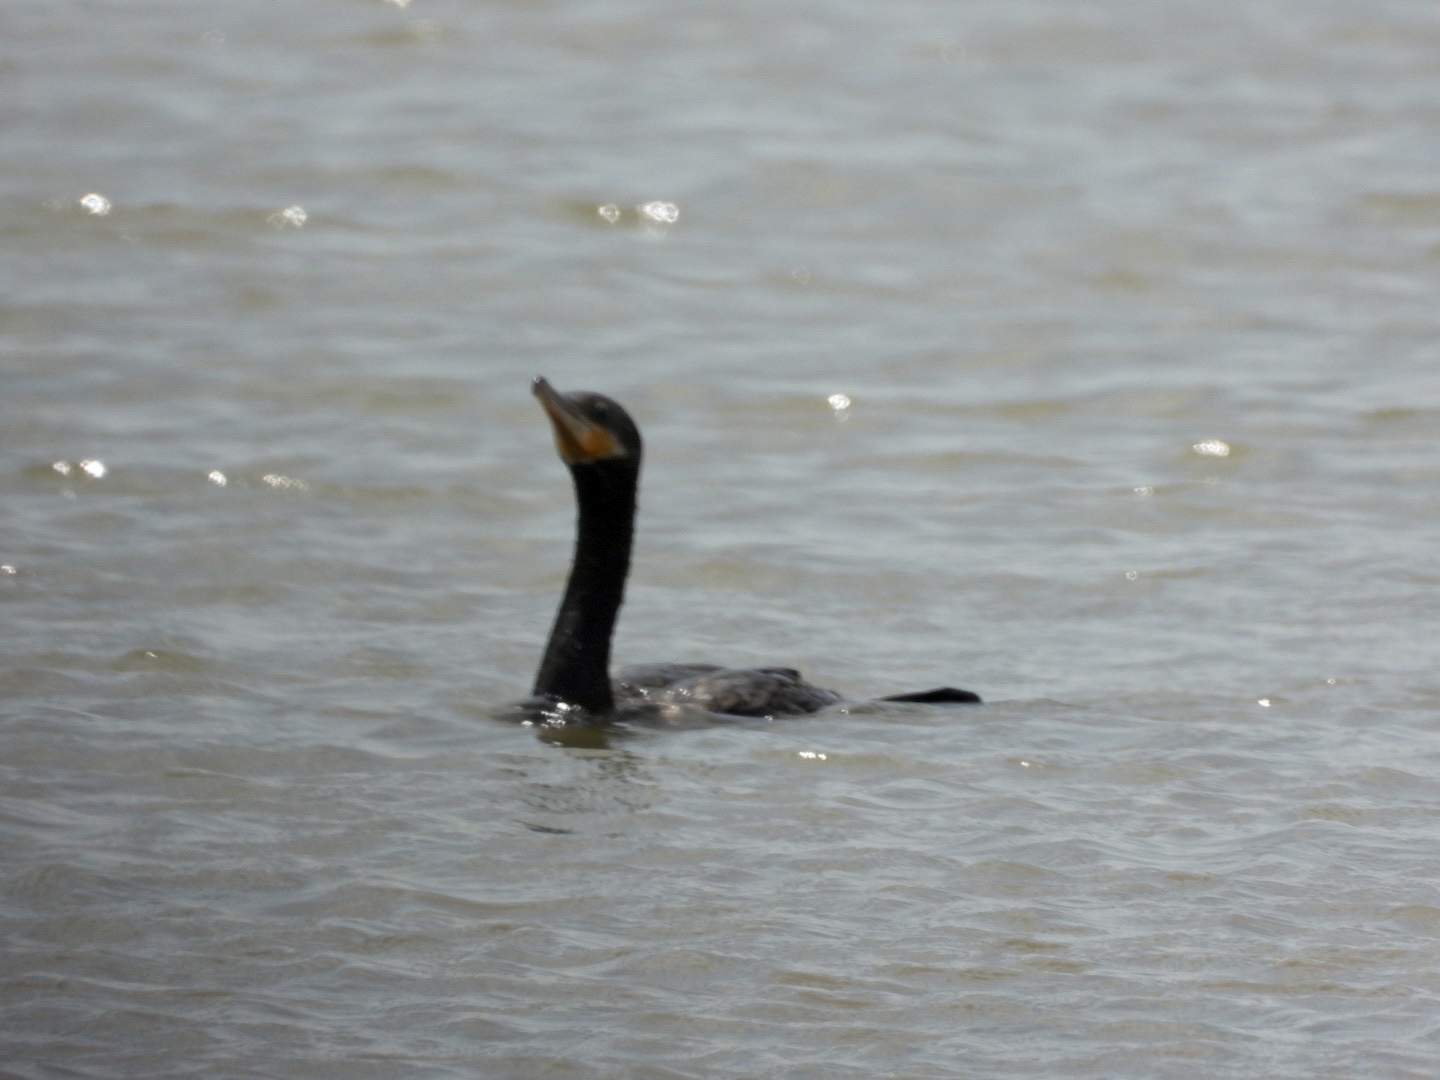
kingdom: Animalia
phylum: Chordata
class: Aves
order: Suliformes
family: Phalacrocoracidae
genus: Phalacrocorax
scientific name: Phalacrocorax brasilianus
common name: Neotropic cormorant
